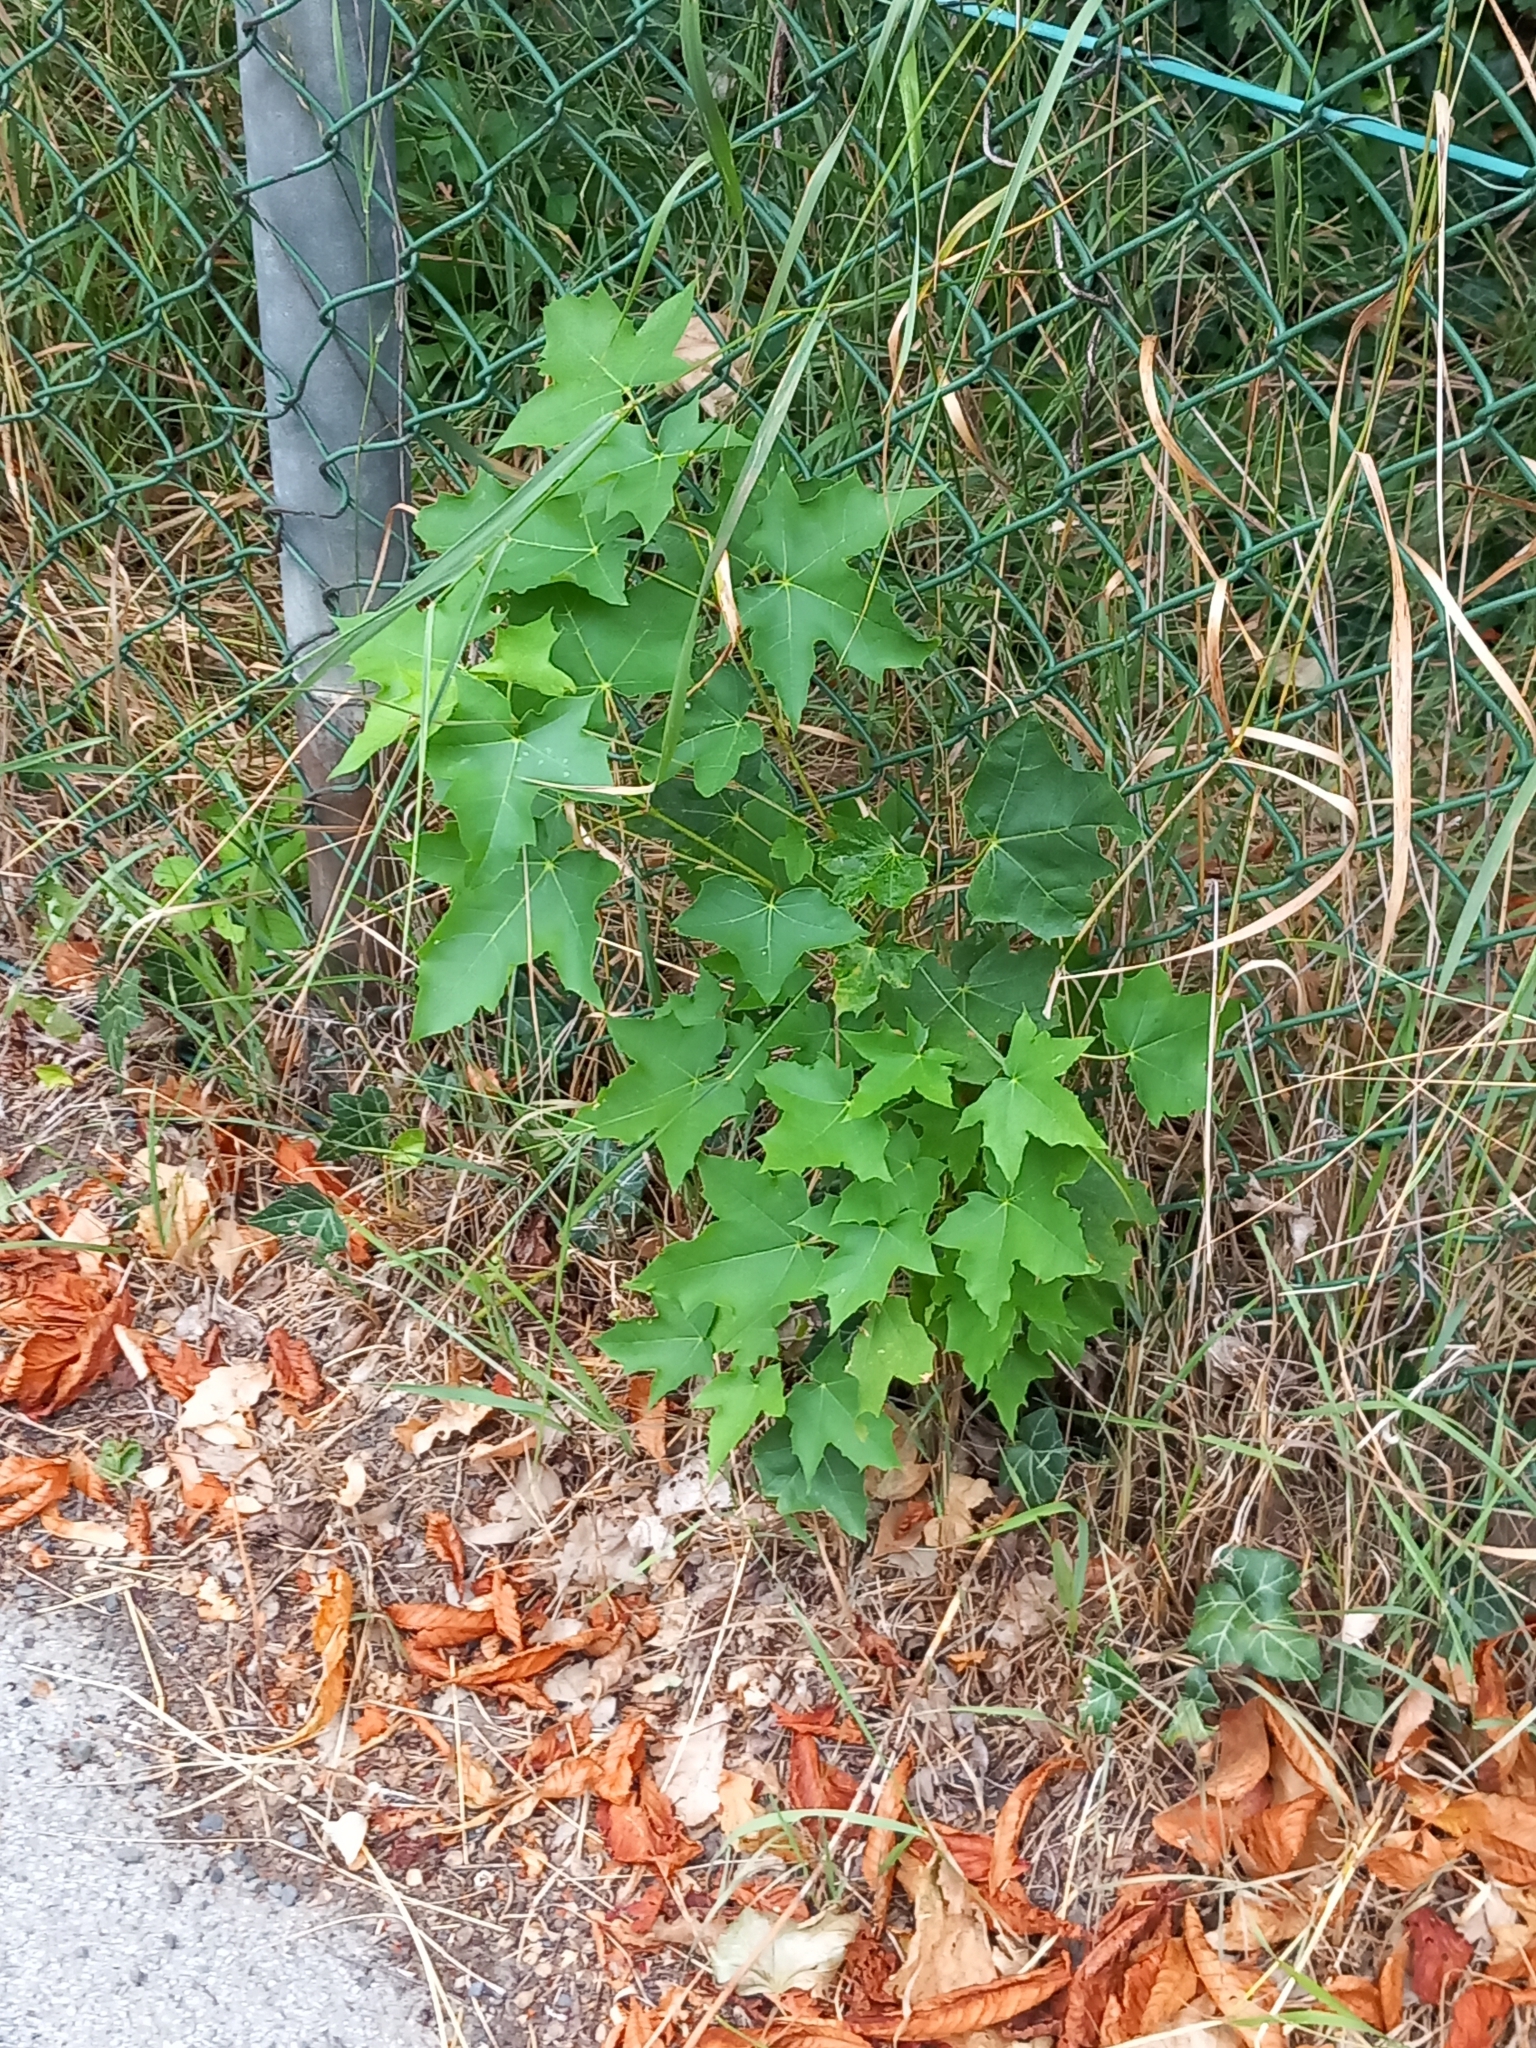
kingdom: Plantae
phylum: Tracheophyta
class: Magnoliopsida
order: Sapindales
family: Sapindaceae
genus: Acer
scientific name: Acer platanoides
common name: Norway maple
